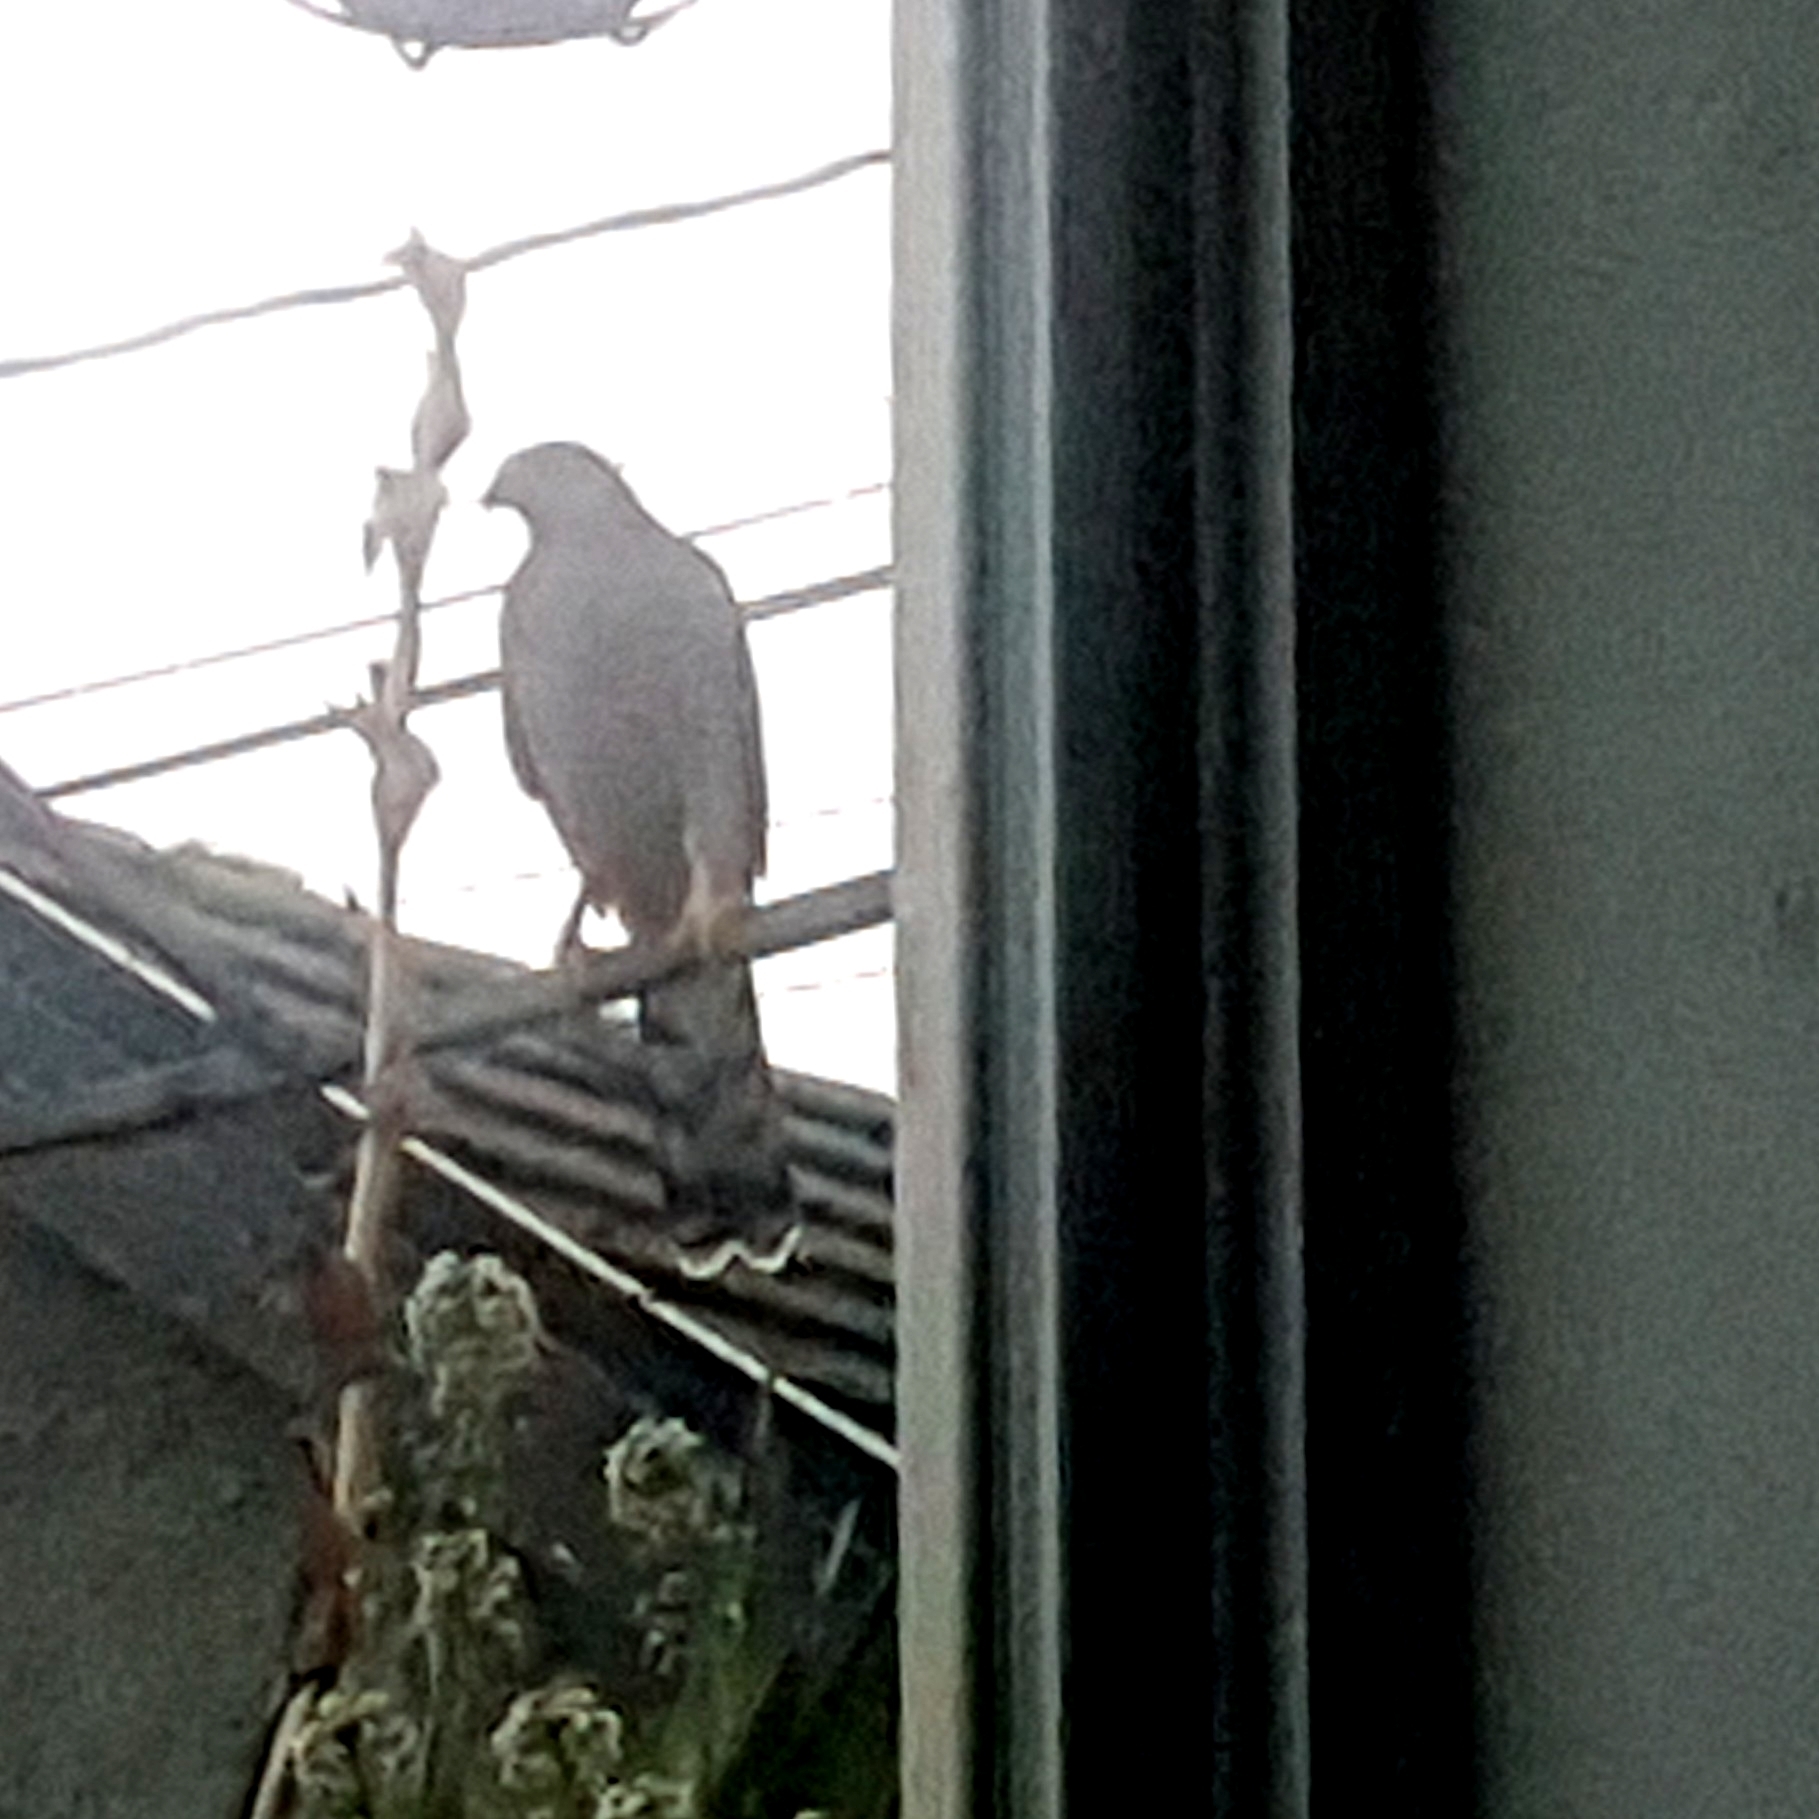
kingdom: Animalia
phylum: Chordata
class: Aves
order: Accipitriformes
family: Accipitridae
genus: Accipiter
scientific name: Accipiter cooperii
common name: Cooper's hawk
